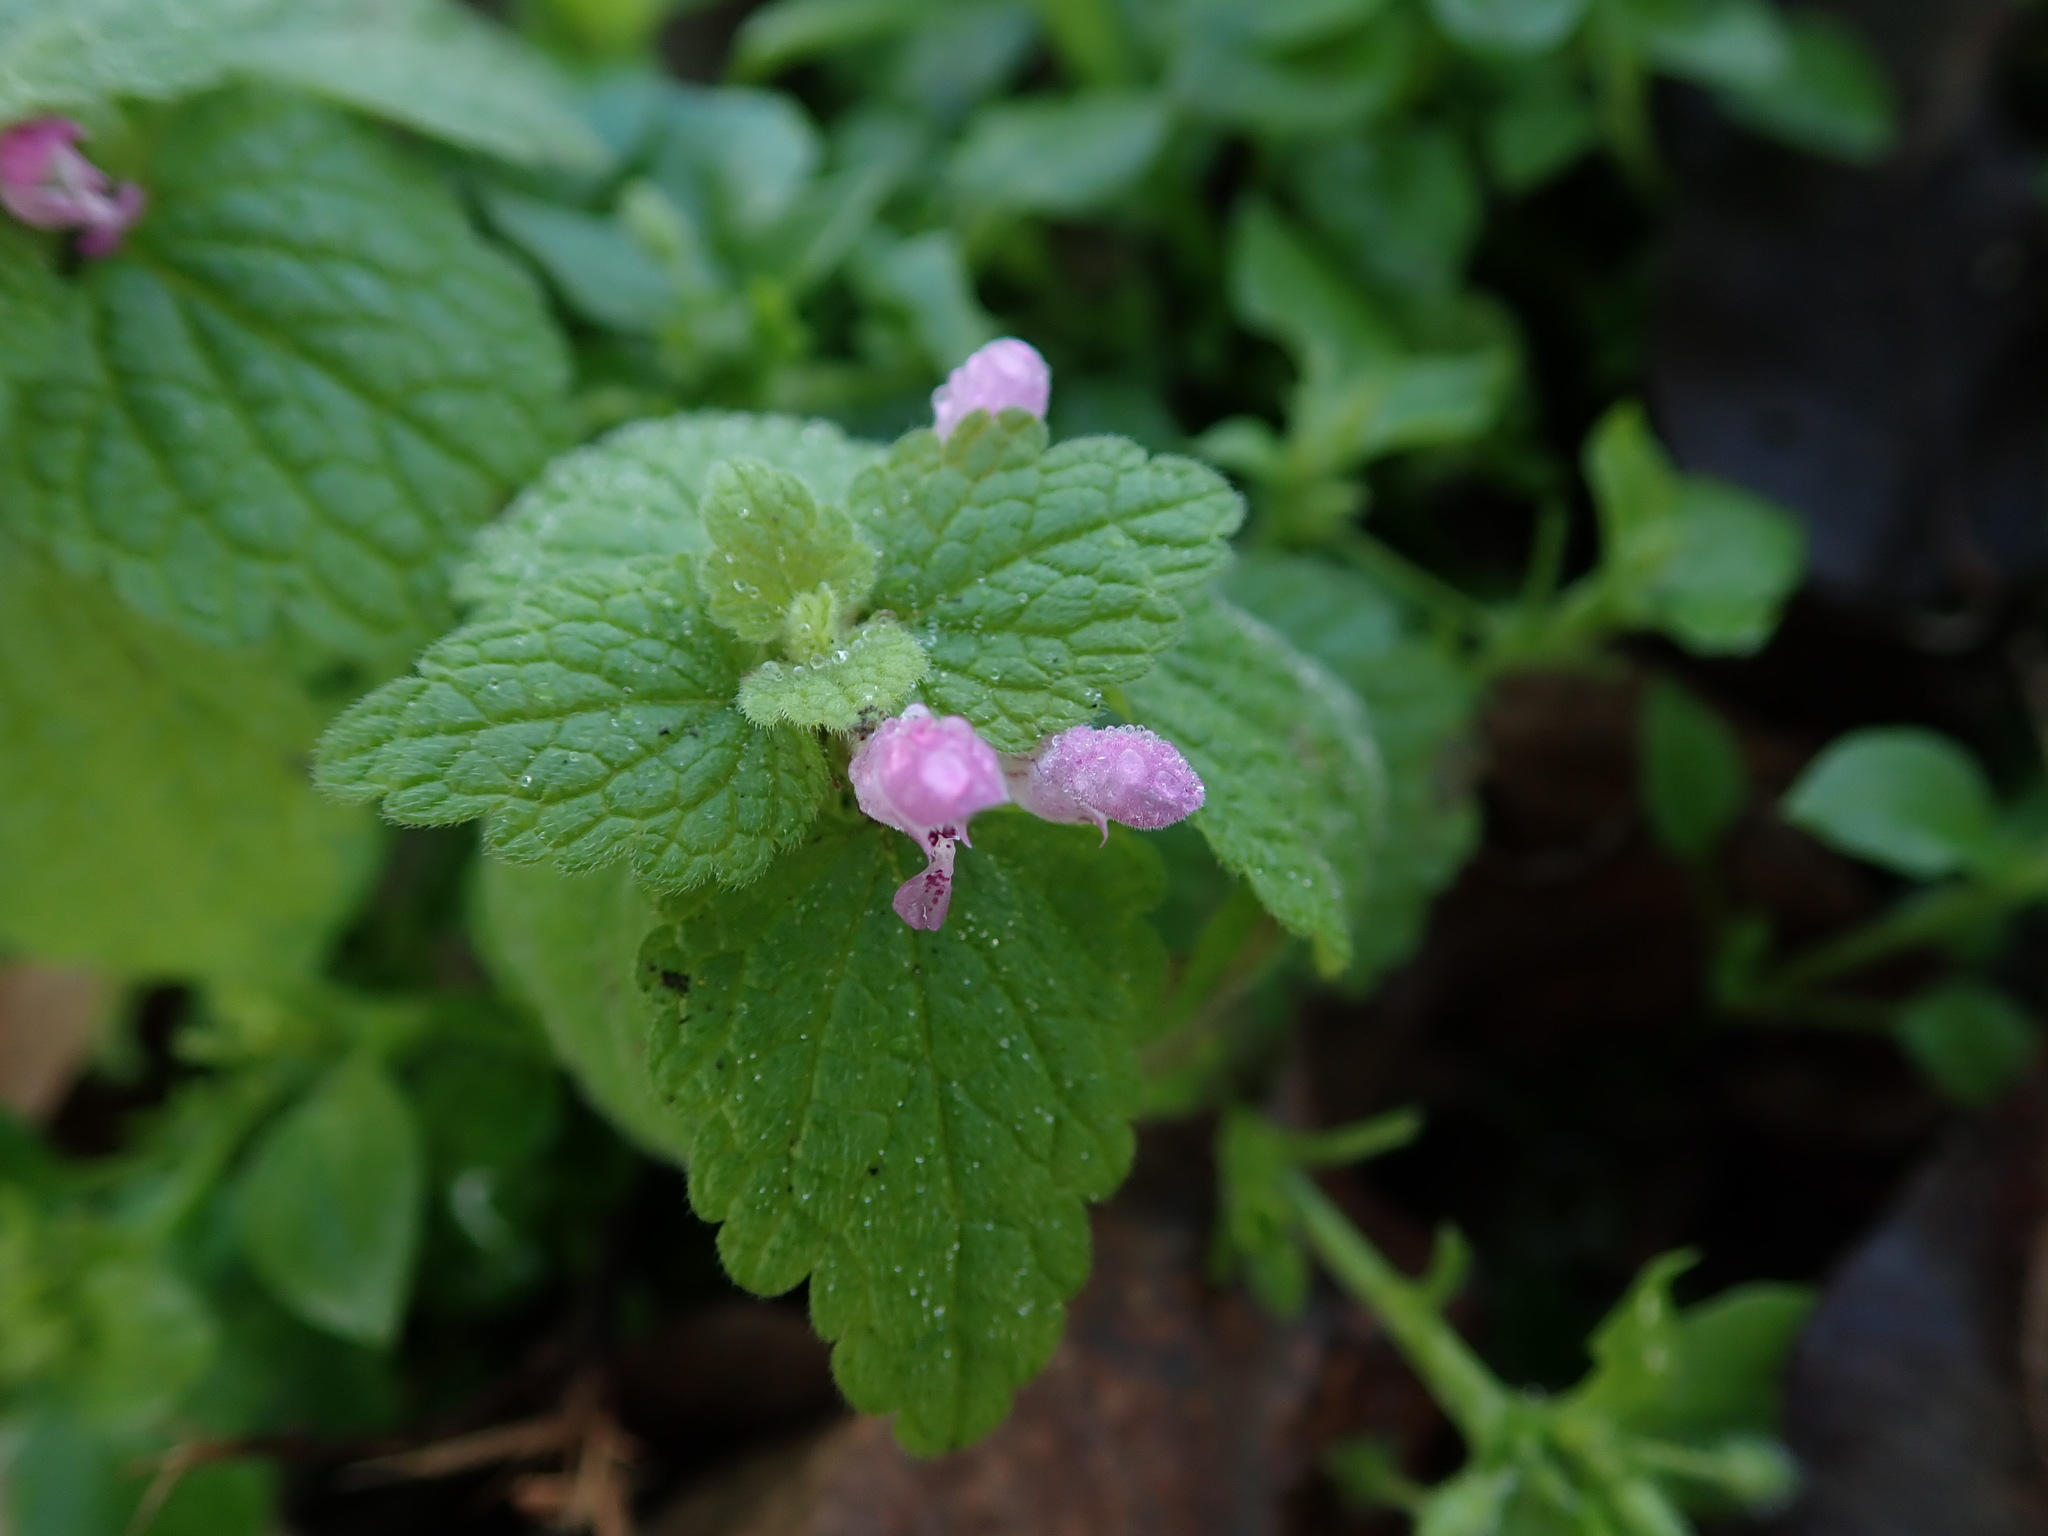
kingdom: Plantae
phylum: Tracheophyta
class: Magnoliopsida
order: Lamiales
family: Lamiaceae
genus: Lamium
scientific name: Lamium purpureum
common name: Red dead-nettle
